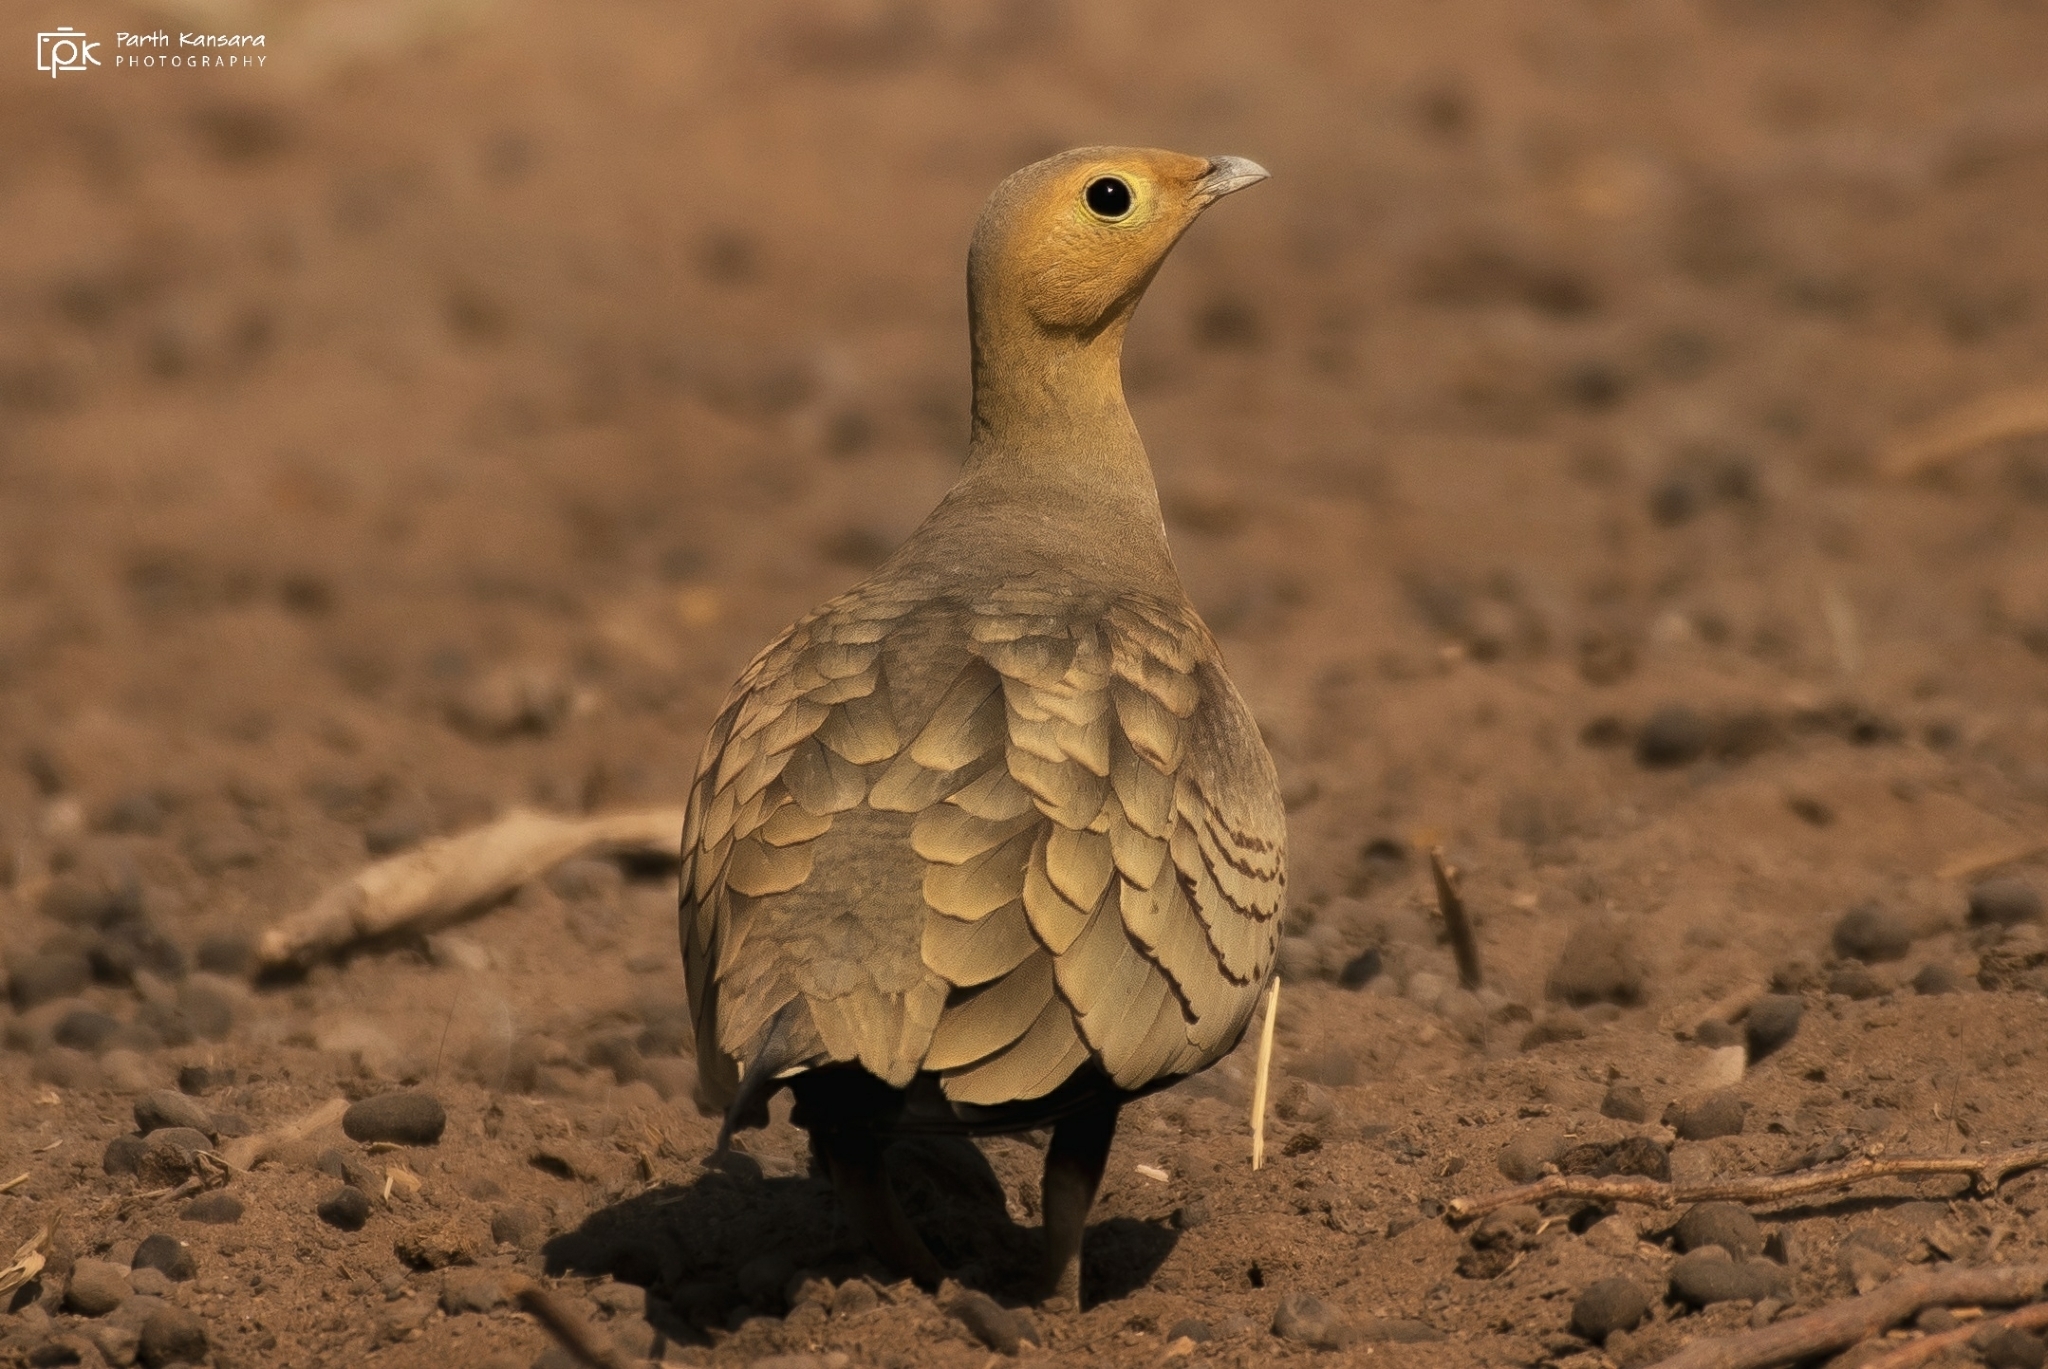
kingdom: Animalia
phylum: Chordata
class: Aves
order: Pteroclidiformes
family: Pteroclididae
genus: Pterocles
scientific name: Pterocles exustus
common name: Chestnut-bellied sandgrouse
